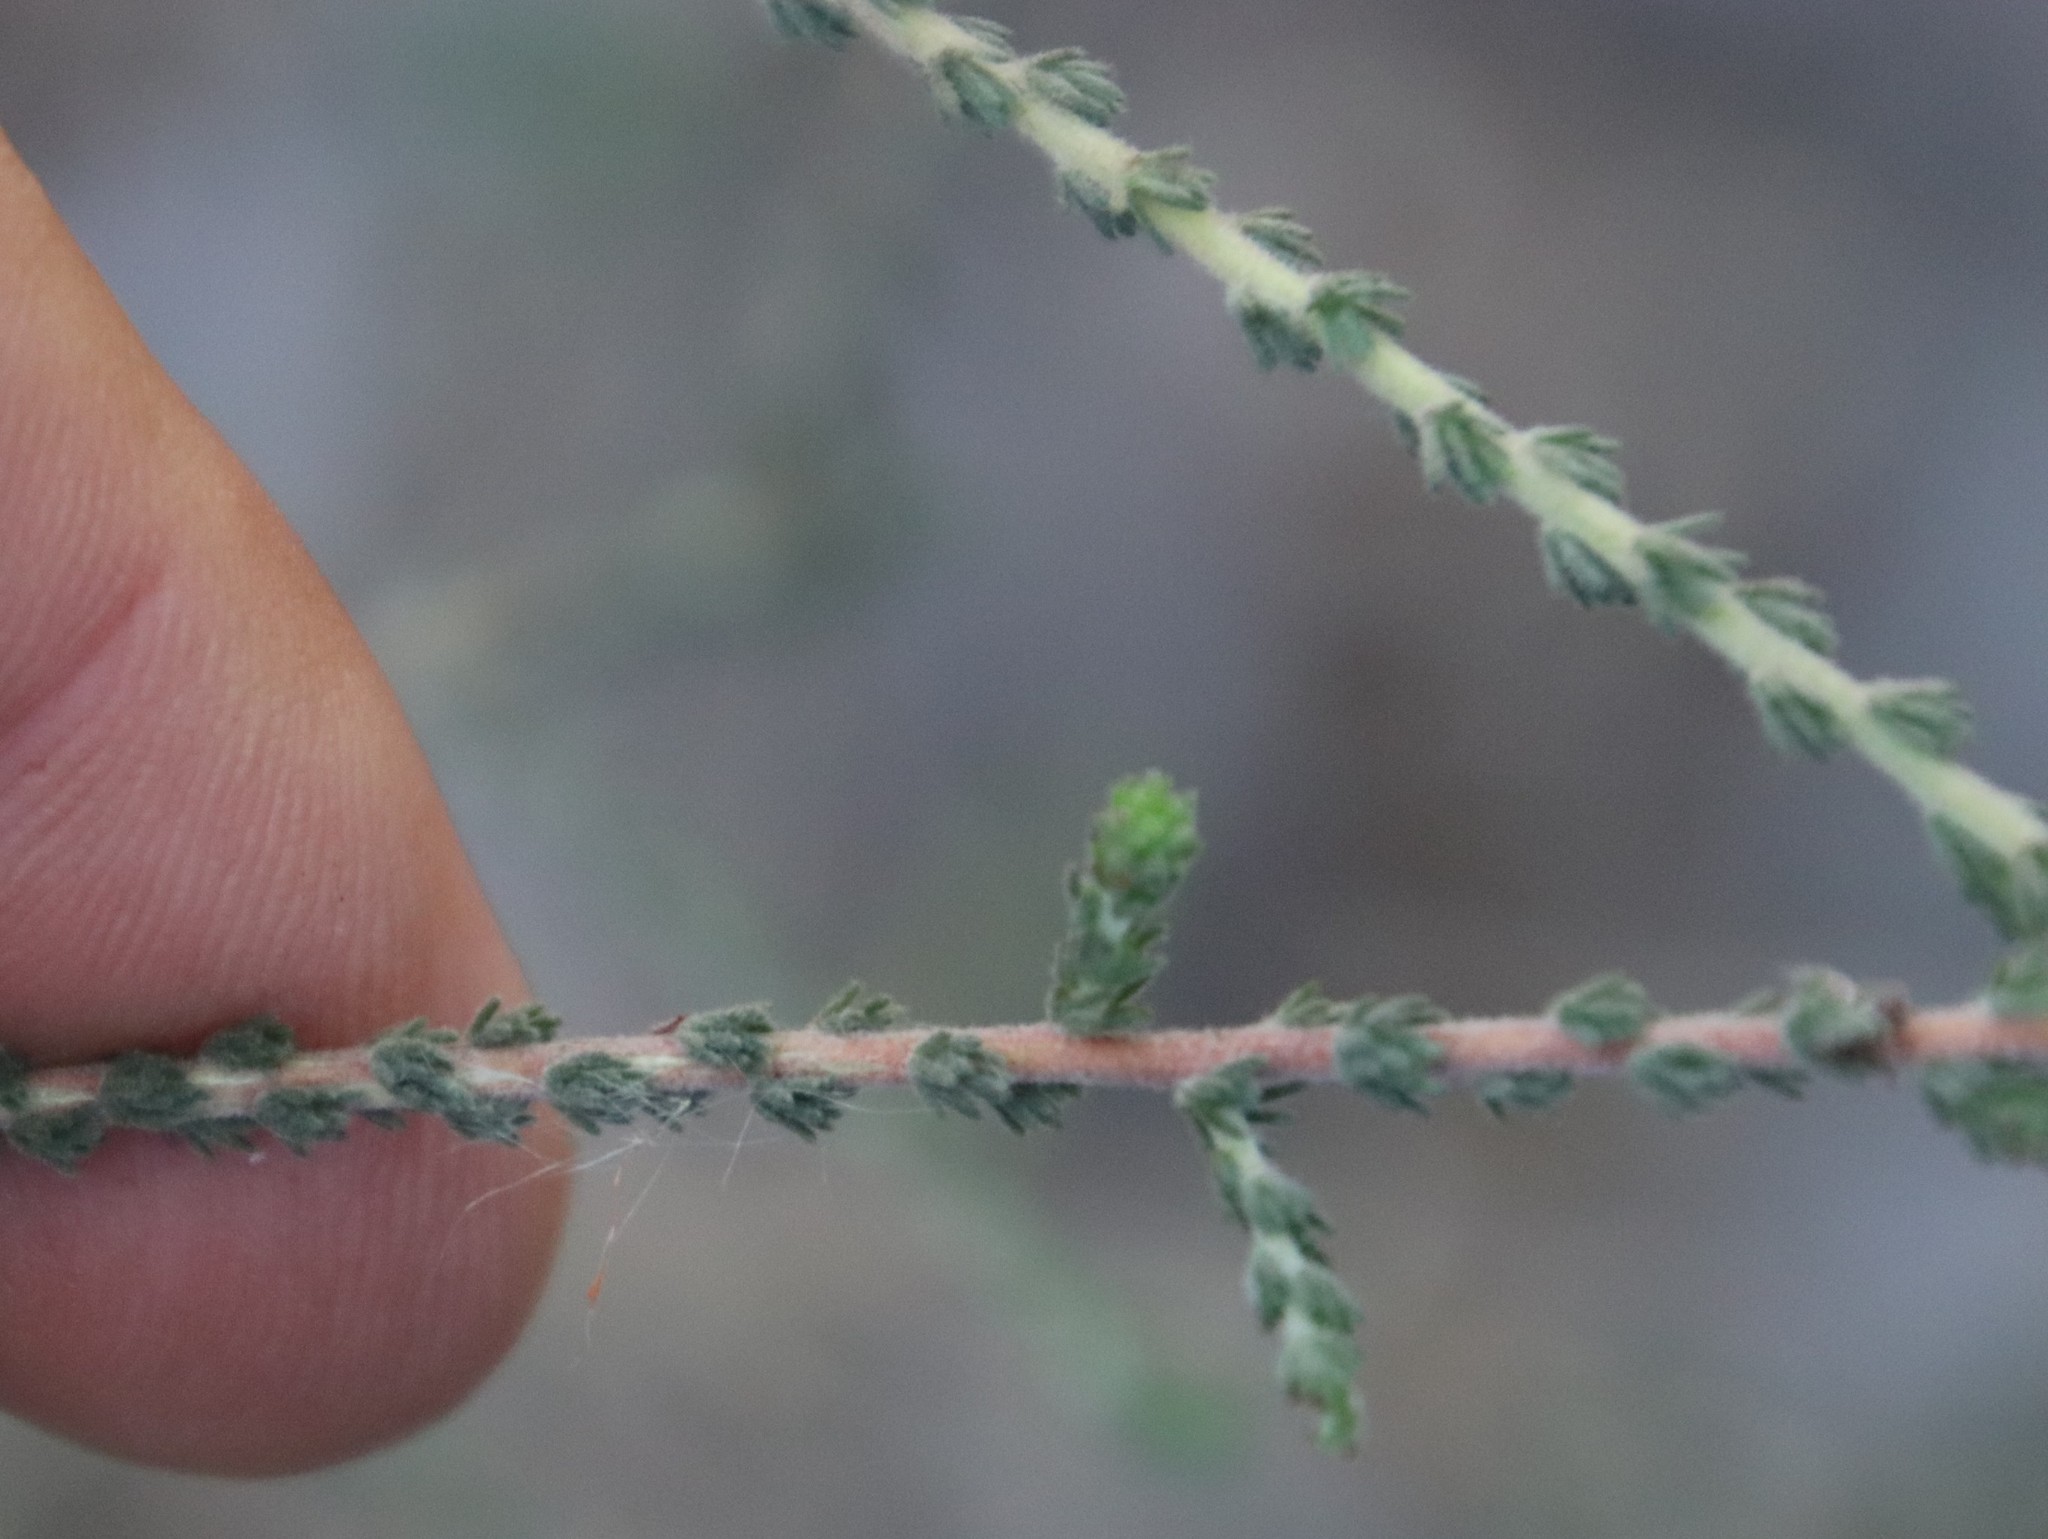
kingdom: Plantae
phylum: Tracheophyta
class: Magnoliopsida
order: Fabales
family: Fabaceae
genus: Aspalathus
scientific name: Aspalathus hispida
